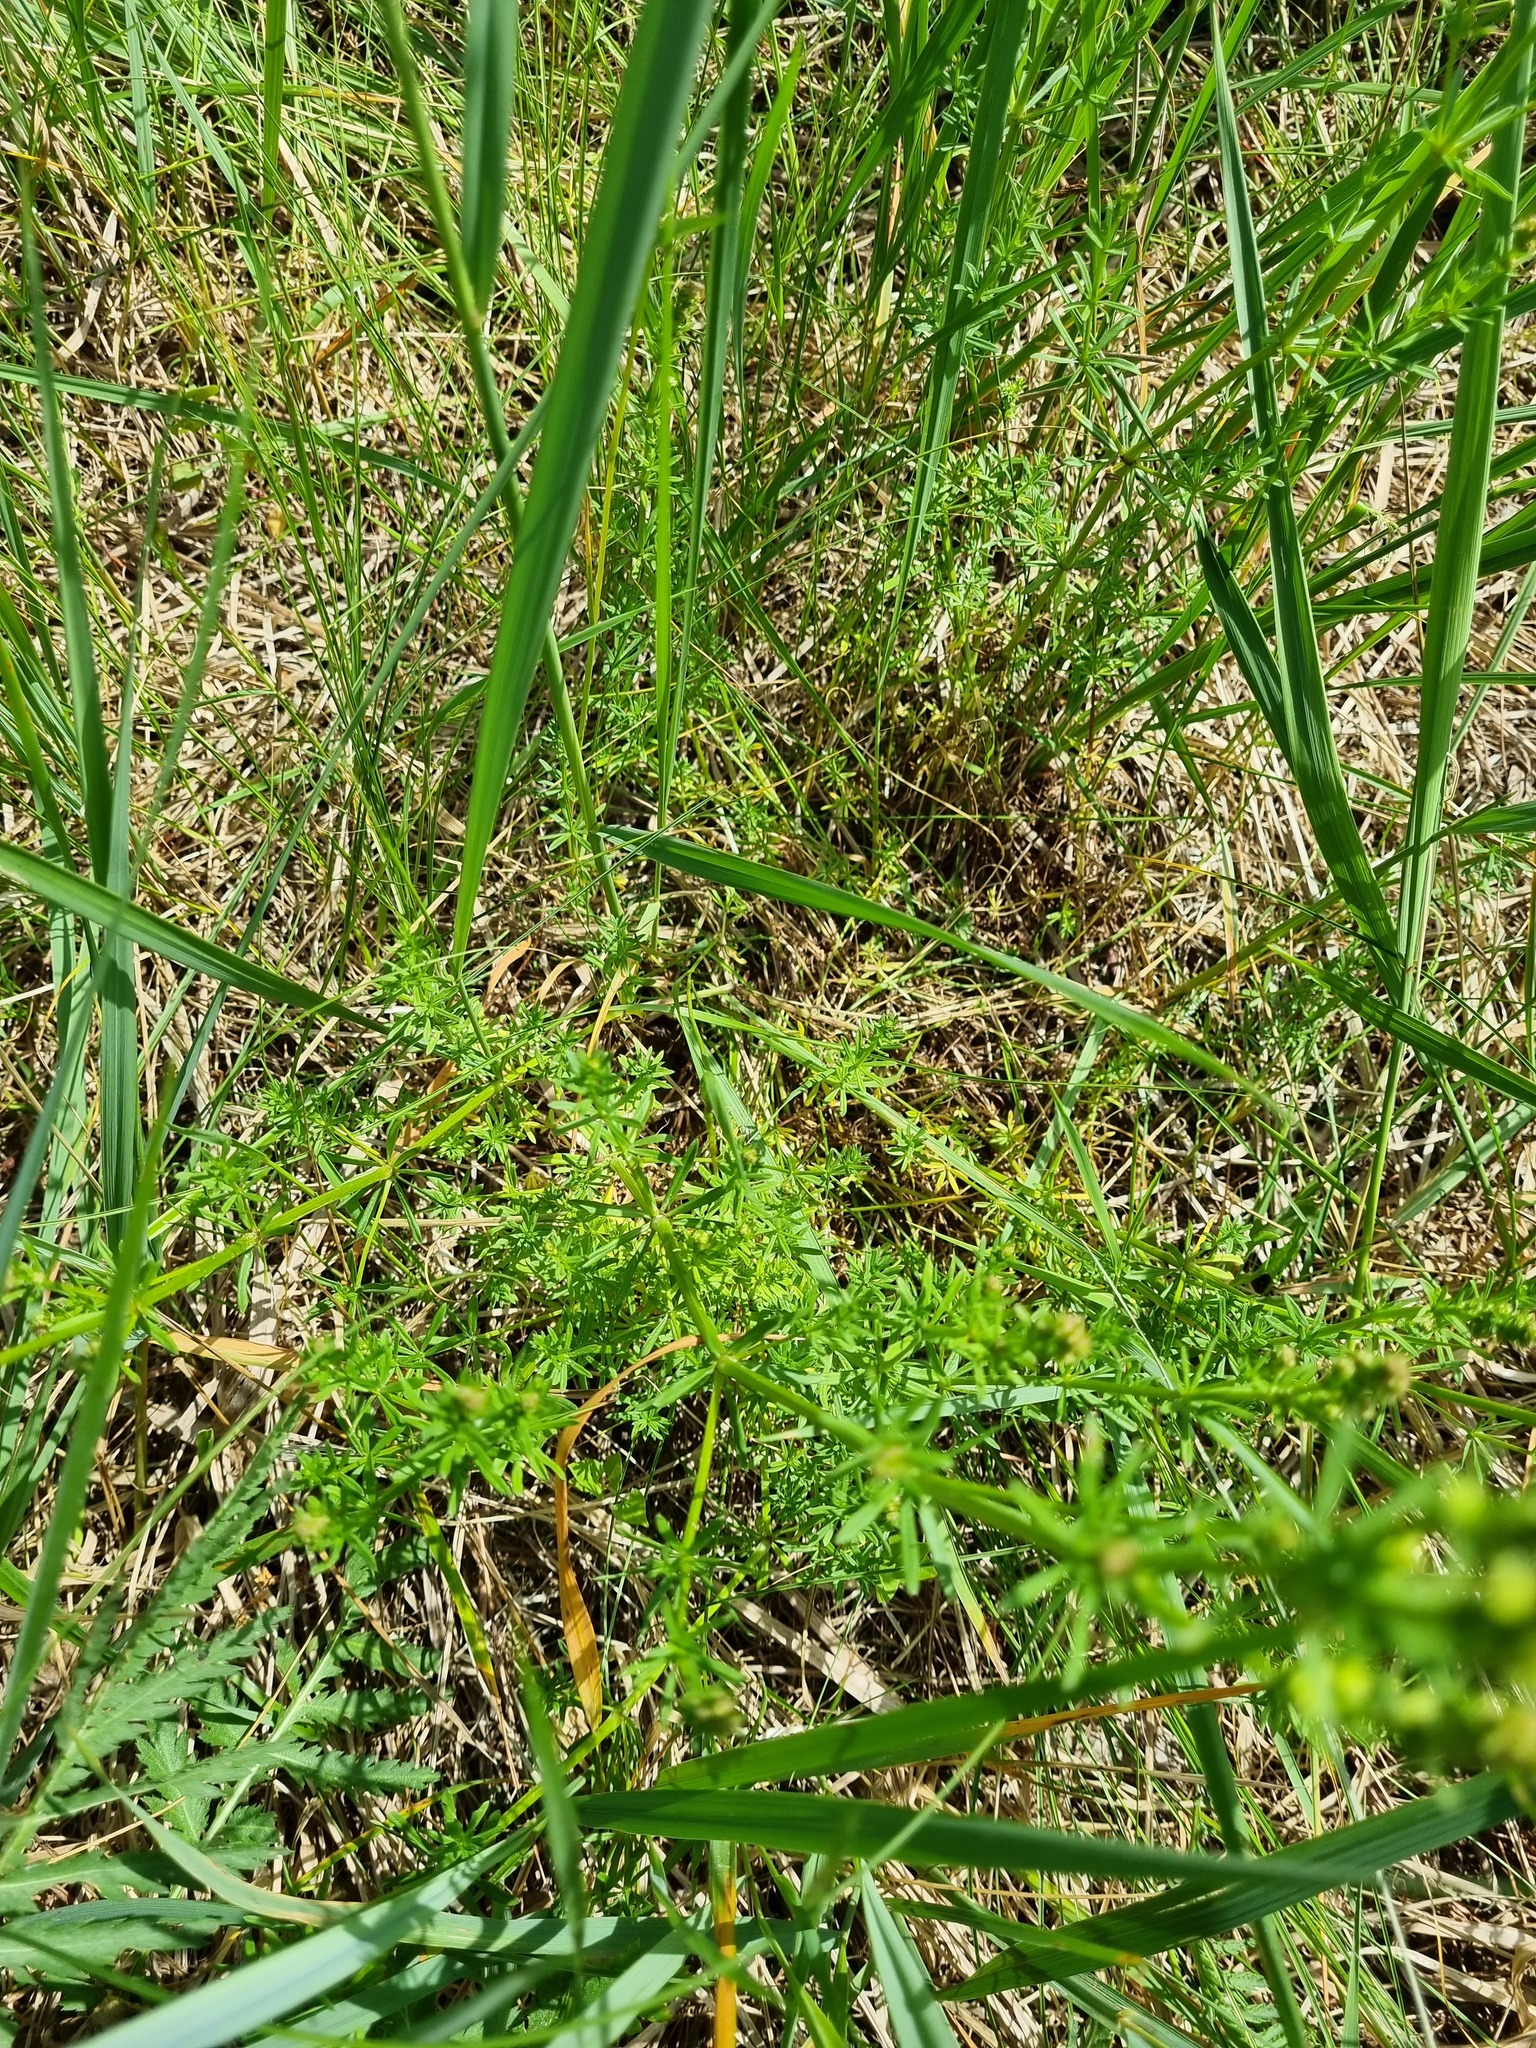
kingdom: Plantae
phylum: Tracheophyta
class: Magnoliopsida
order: Gentianales
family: Rubiaceae
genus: Galium
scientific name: Galium mollugo
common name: Hedge bedstraw
